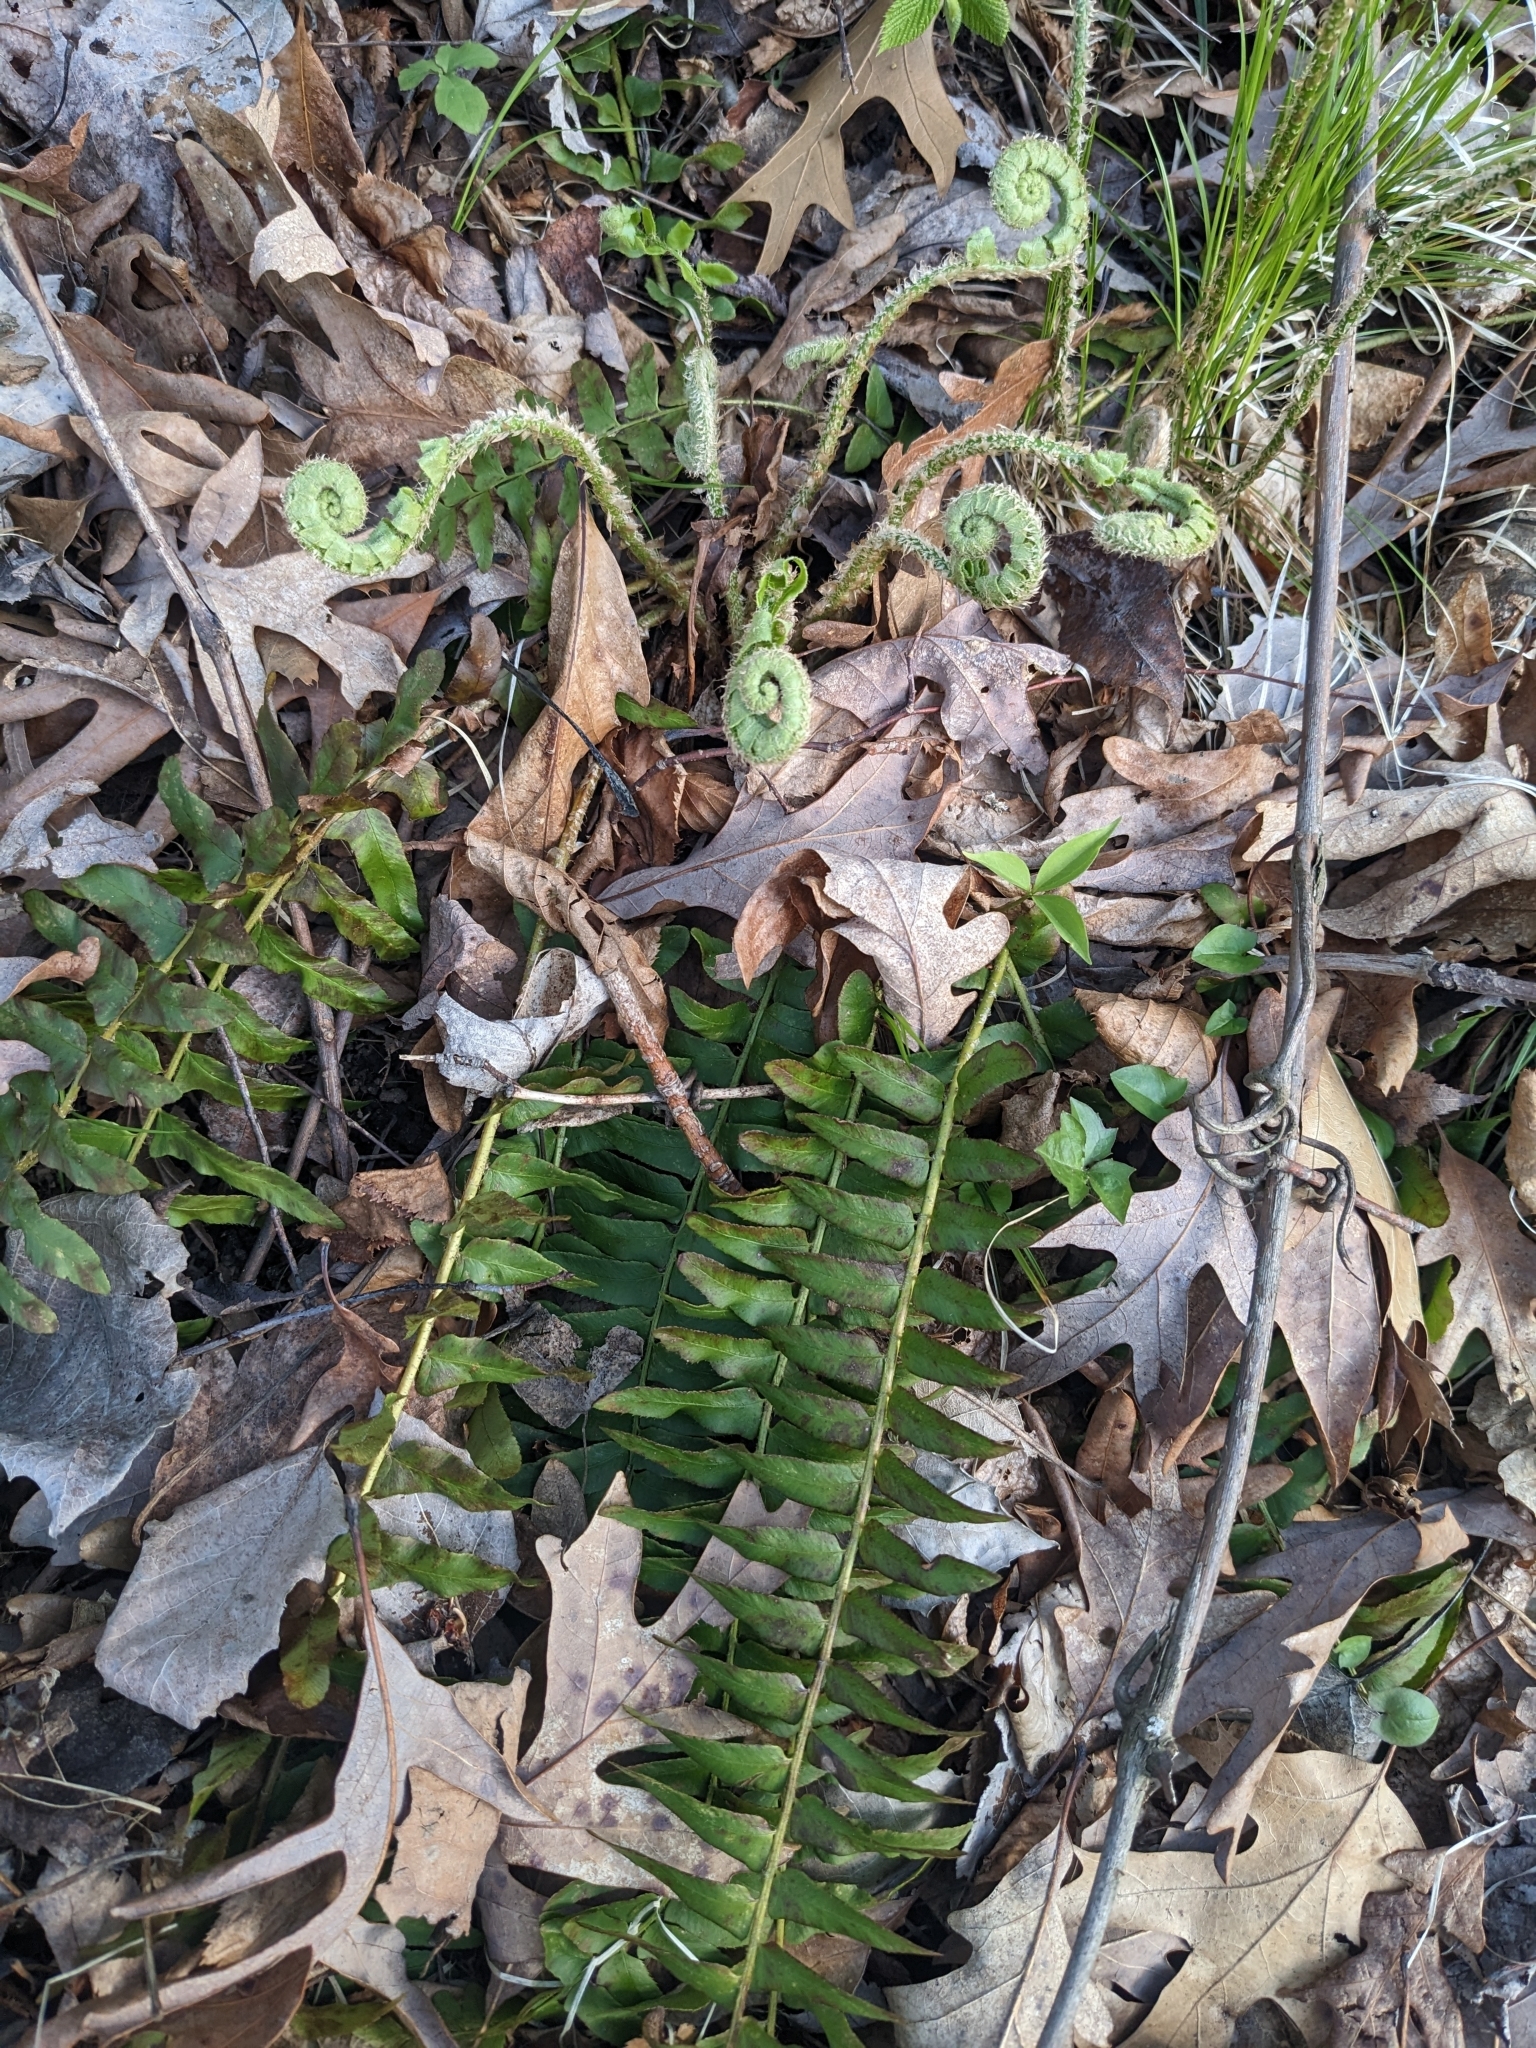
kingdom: Plantae
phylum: Tracheophyta
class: Polypodiopsida
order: Polypodiales
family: Dryopteridaceae
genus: Polystichum
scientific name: Polystichum acrostichoides
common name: Christmas fern
